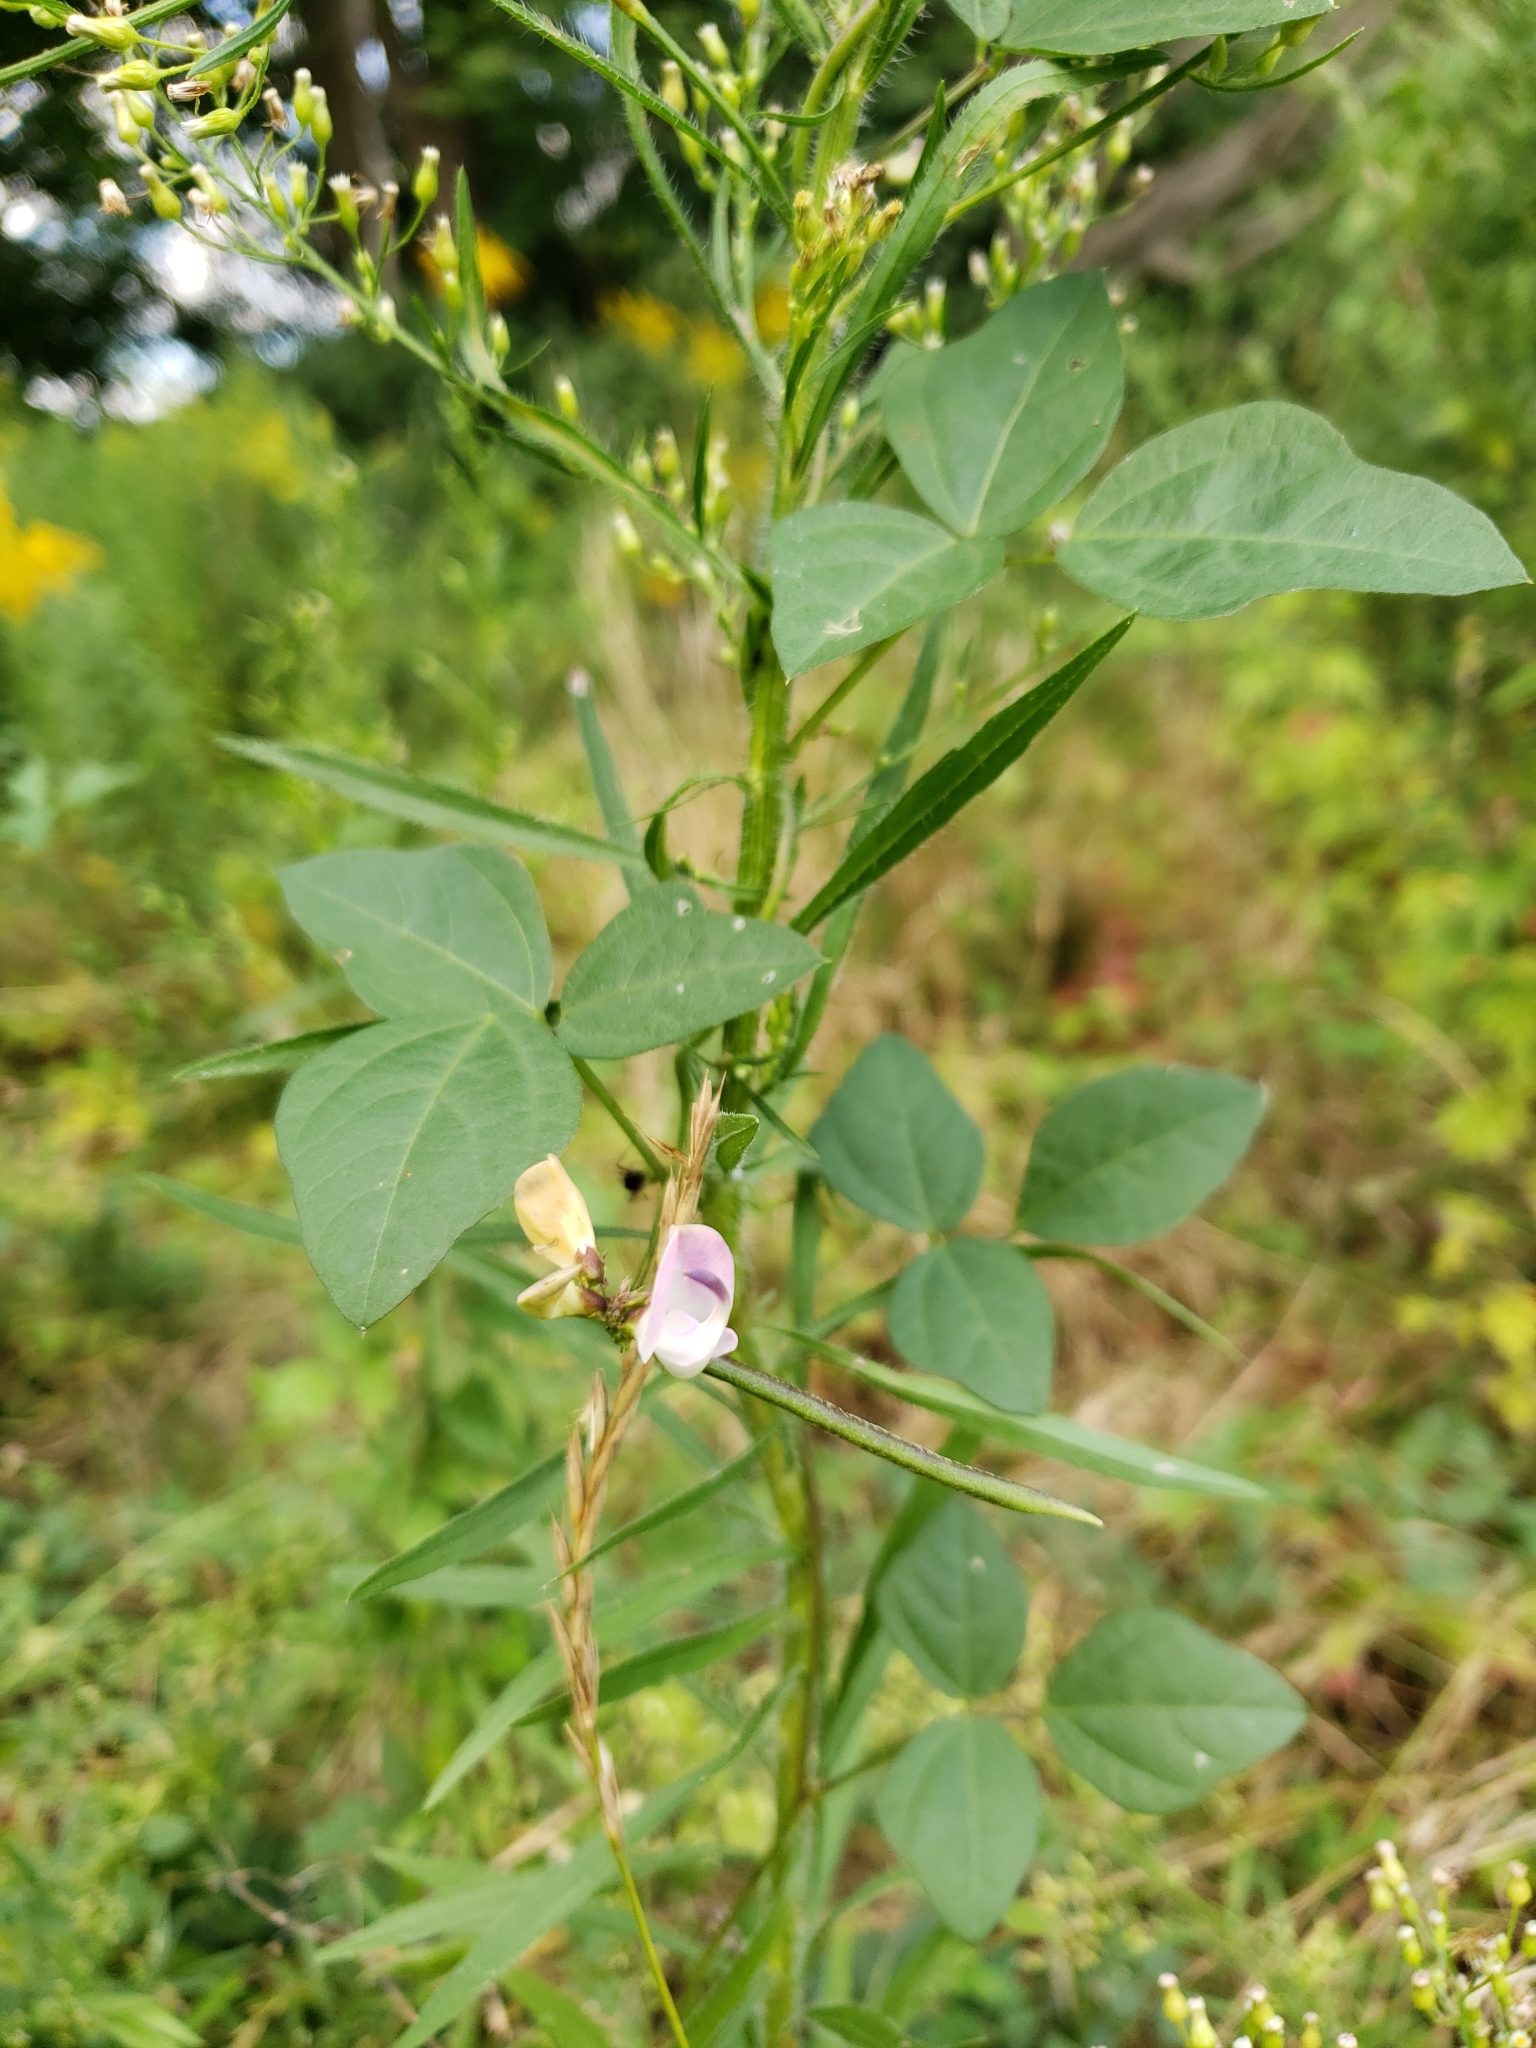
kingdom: Plantae
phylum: Tracheophyta
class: Magnoliopsida
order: Fabales
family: Fabaceae
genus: Strophostyles
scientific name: Strophostyles helvola
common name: Trailing wild bean
